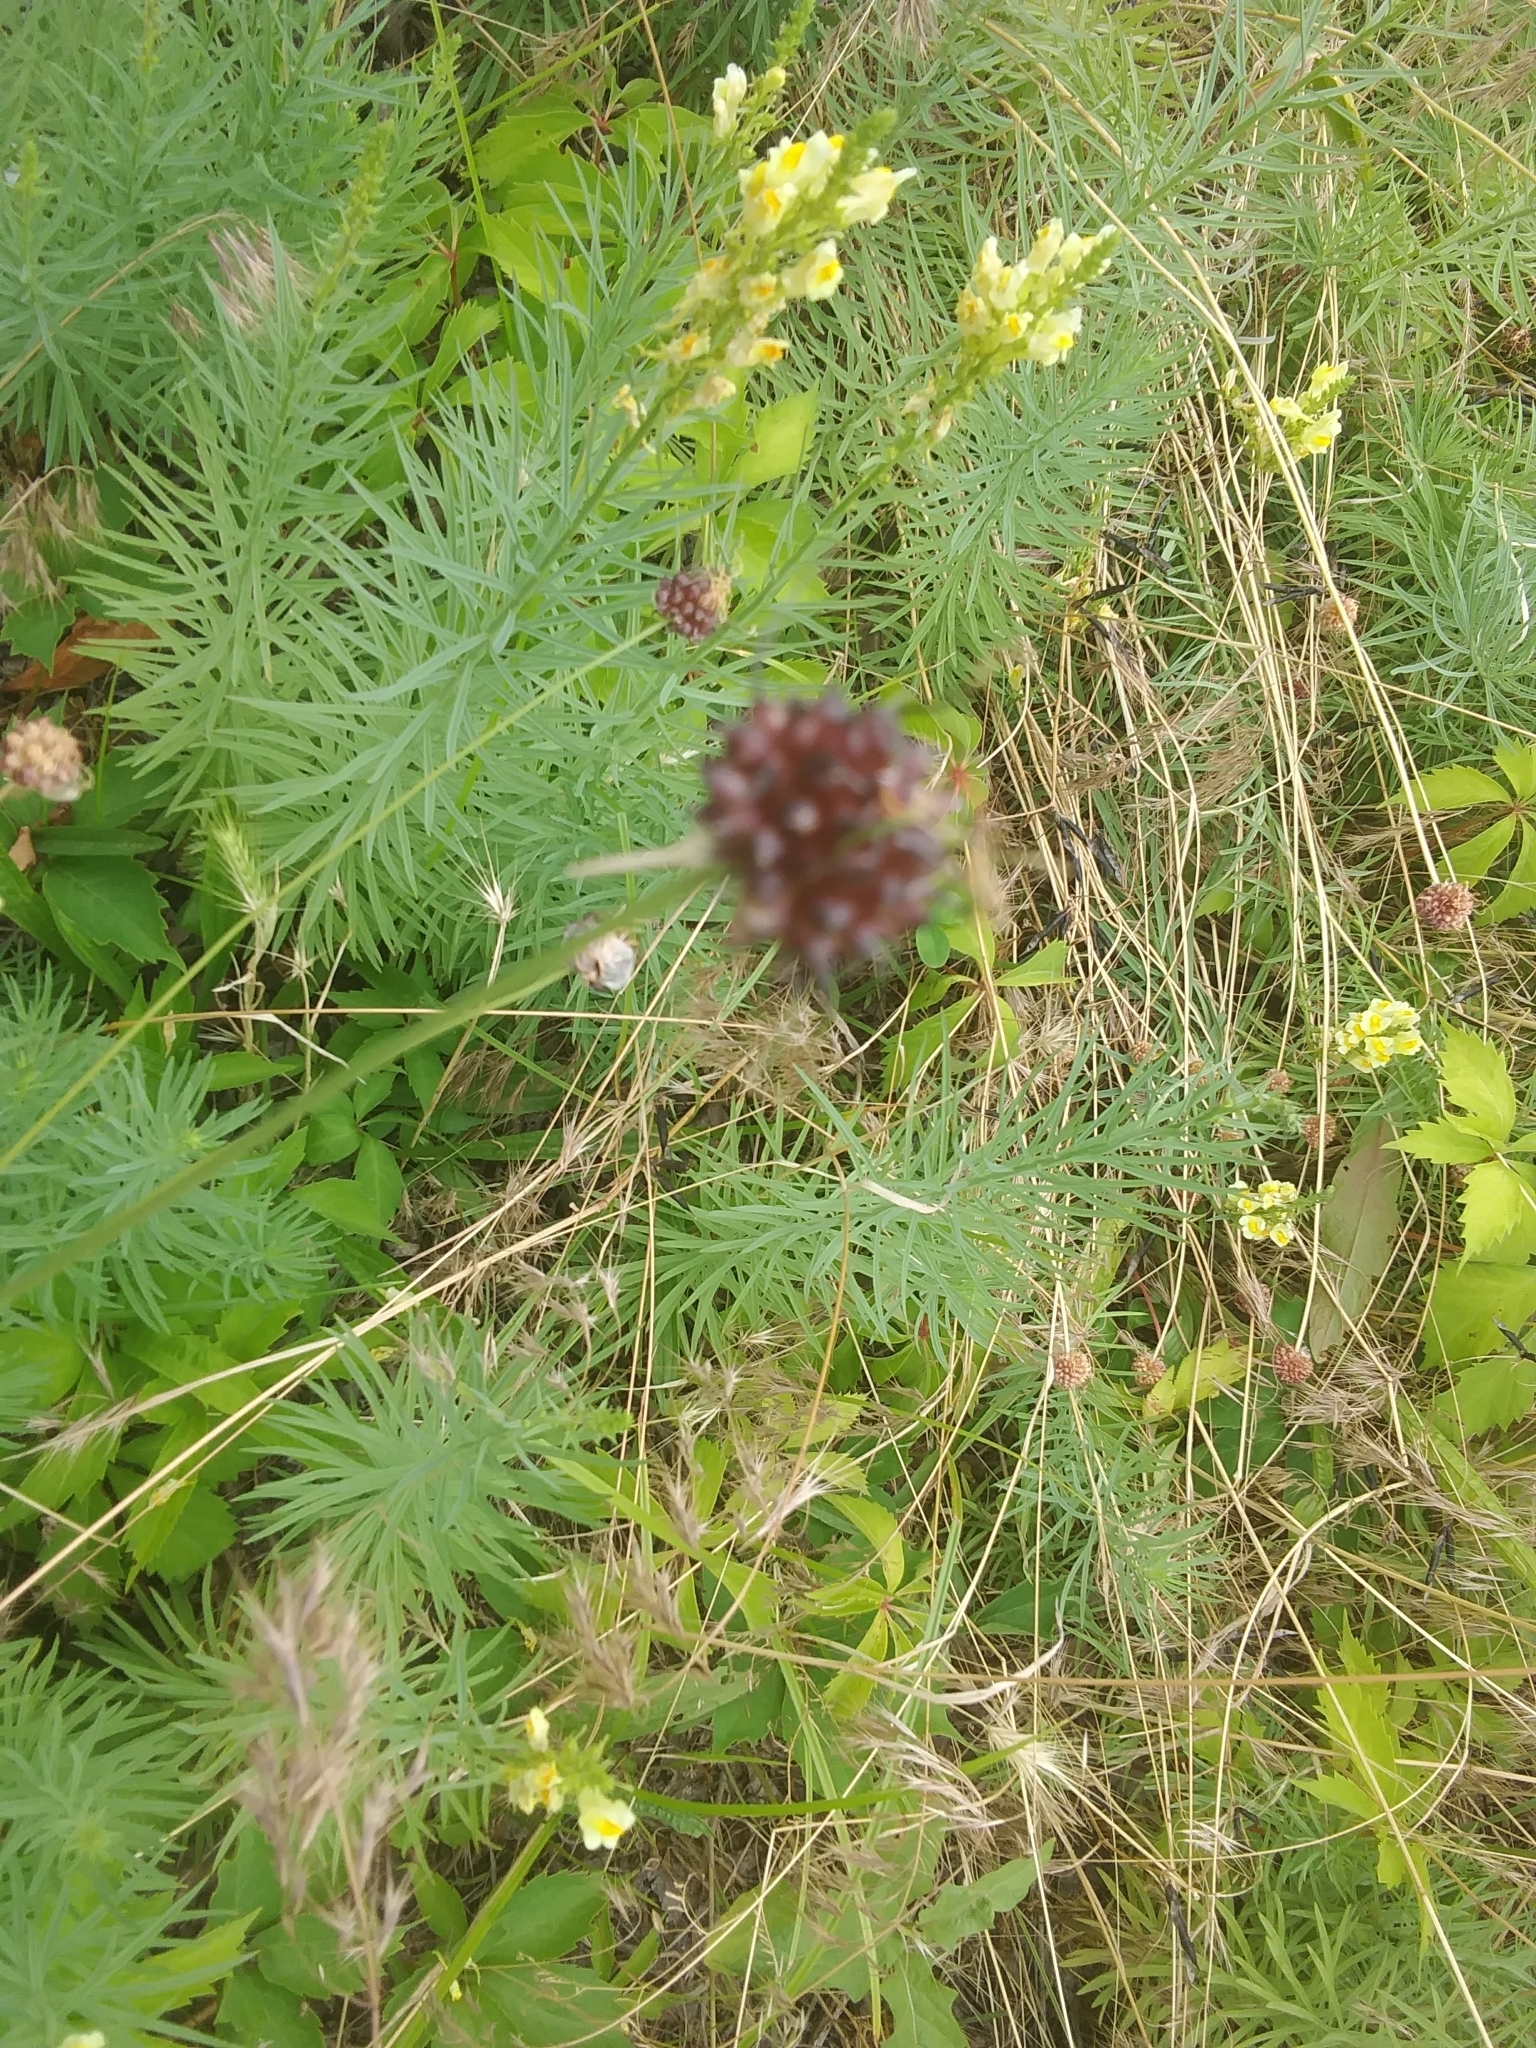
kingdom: Plantae
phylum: Tracheophyta
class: Liliopsida
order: Asparagales
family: Amaryllidaceae
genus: Allium
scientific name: Allium vineale
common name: Crow garlic
